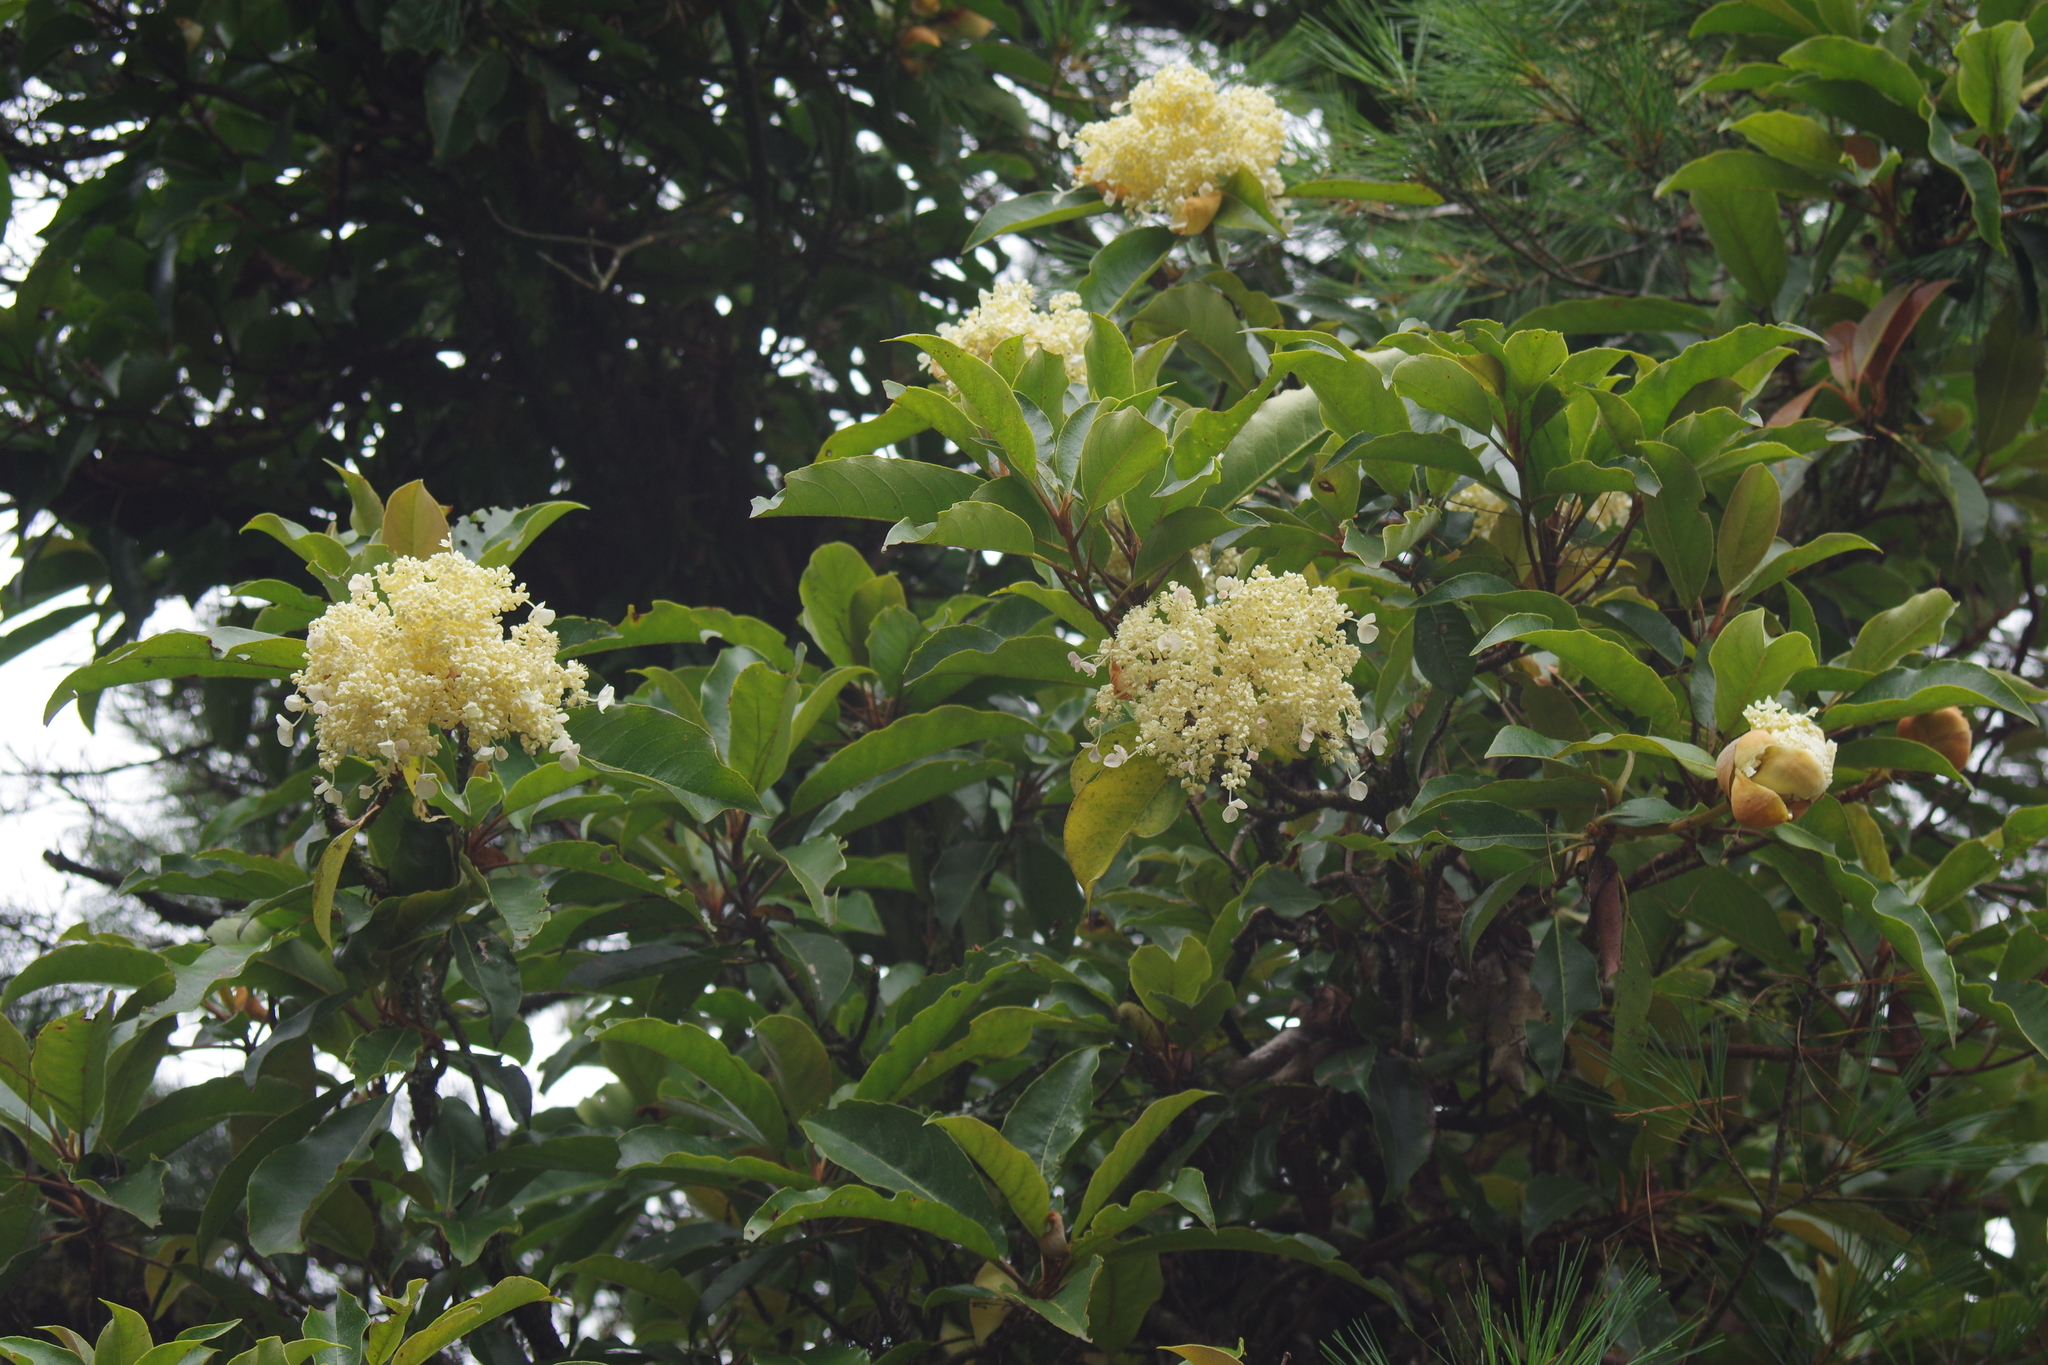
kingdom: Plantae
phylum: Tracheophyta
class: Magnoliopsida
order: Cornales
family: Hydrangeaceae
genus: Hydrangea
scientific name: Hydrangea integrifolia
